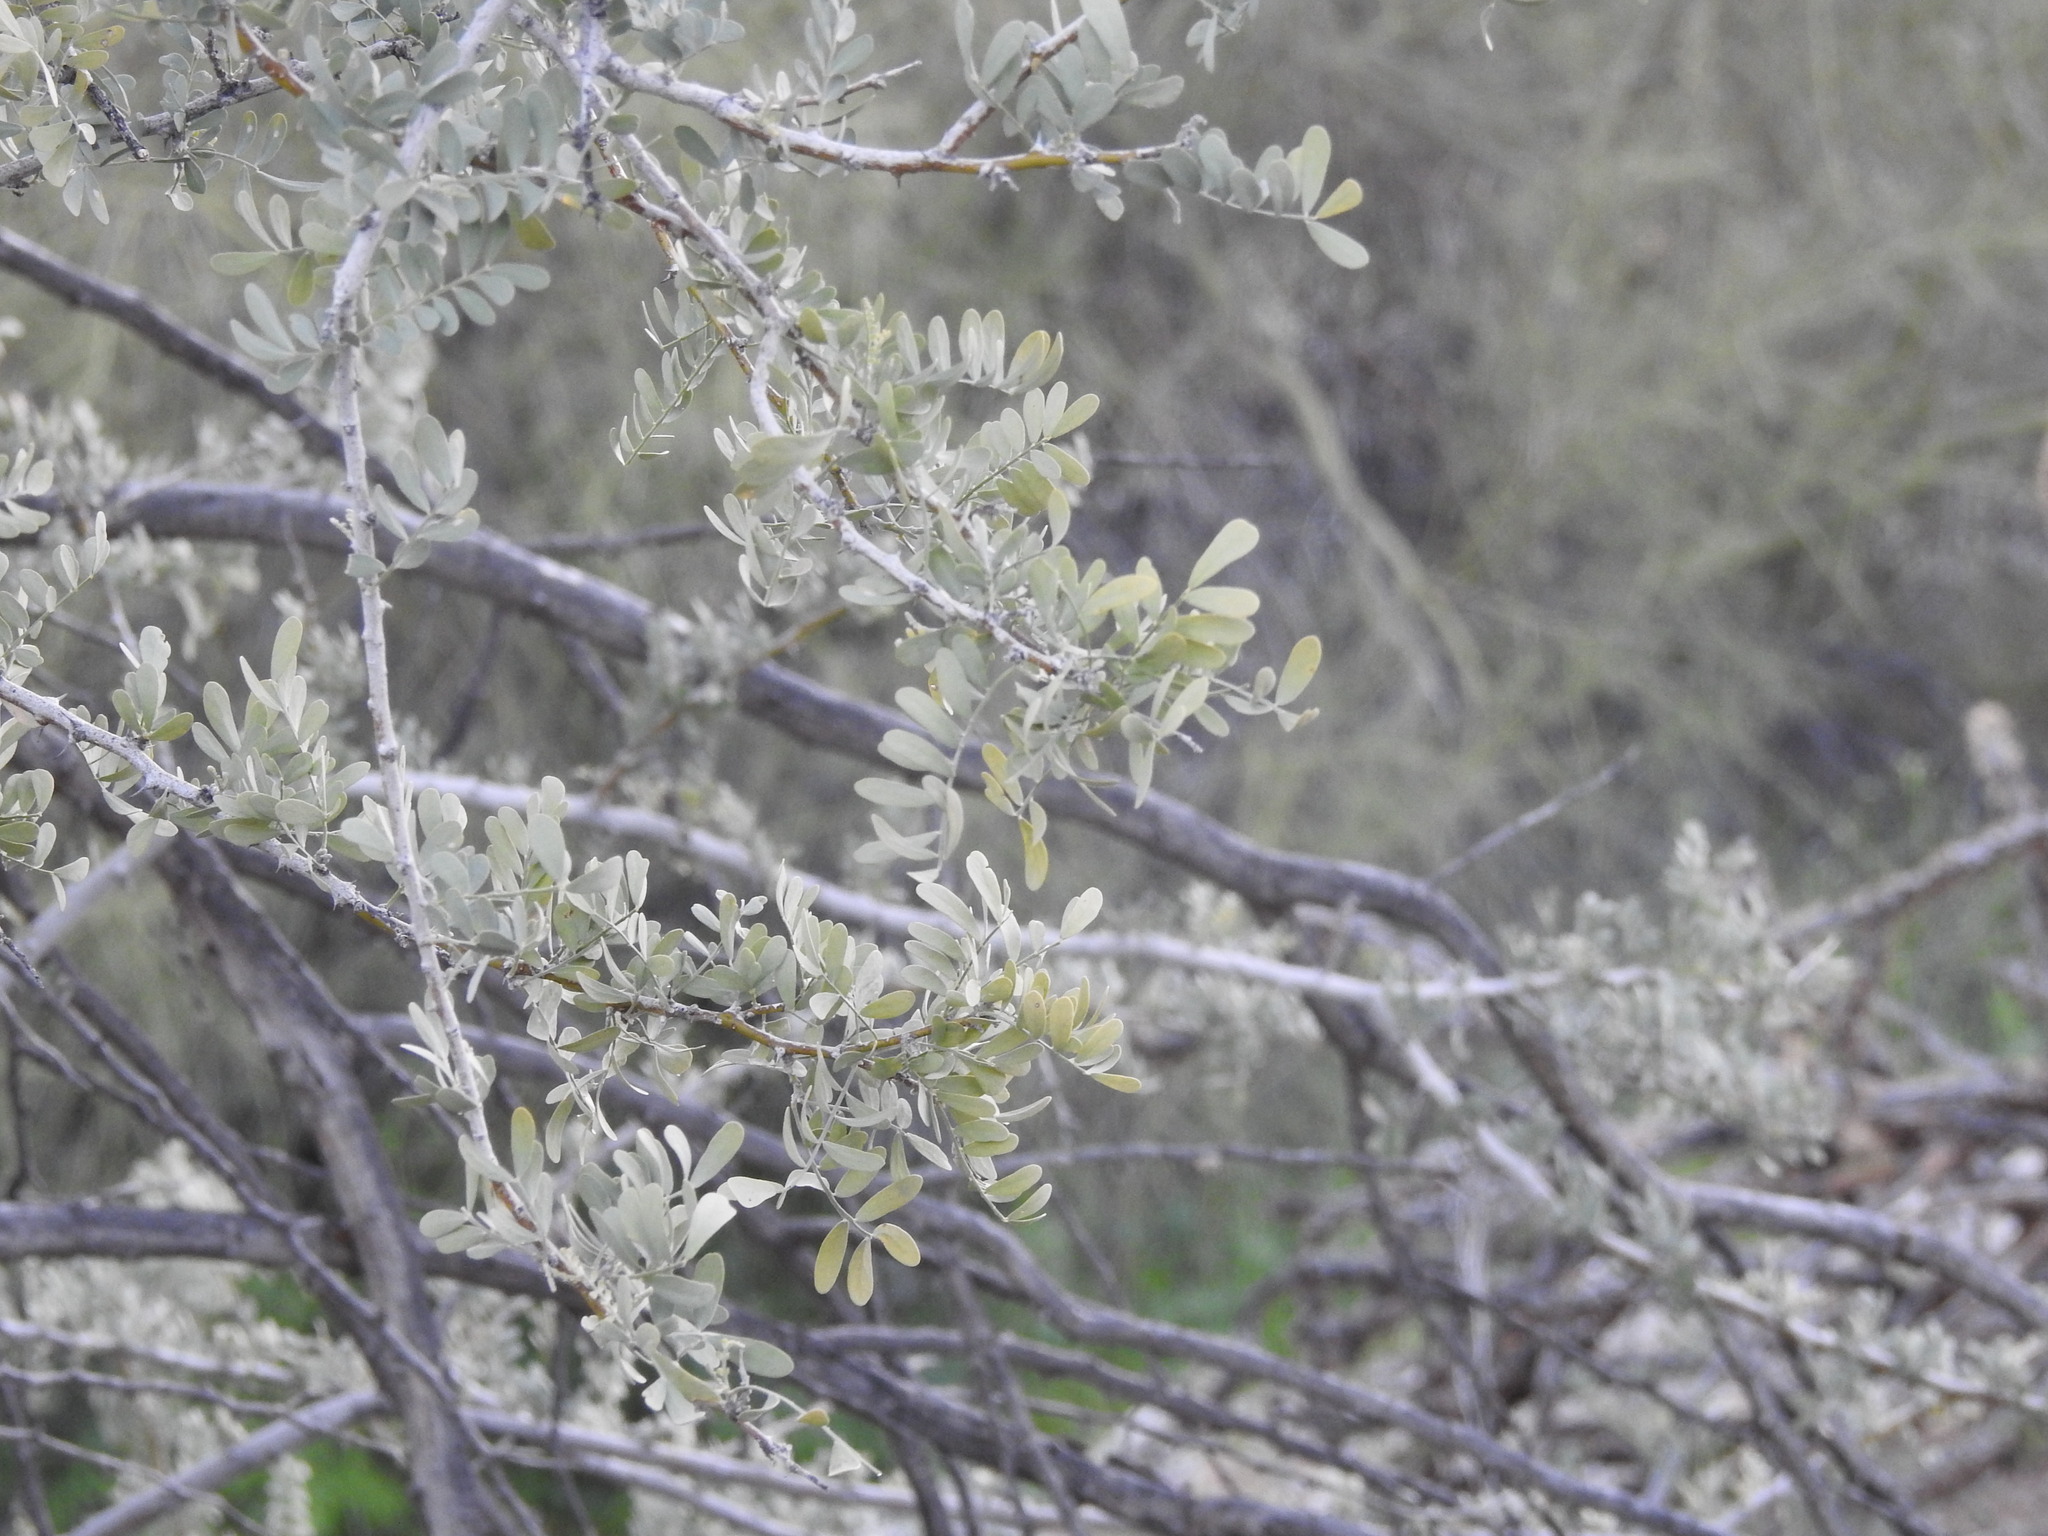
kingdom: Plantae
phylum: Tracheophyta
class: Magnoliopsida
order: Fabales
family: Fabaceae
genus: Olneya
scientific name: Olneya tesota
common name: Desert ironwood
